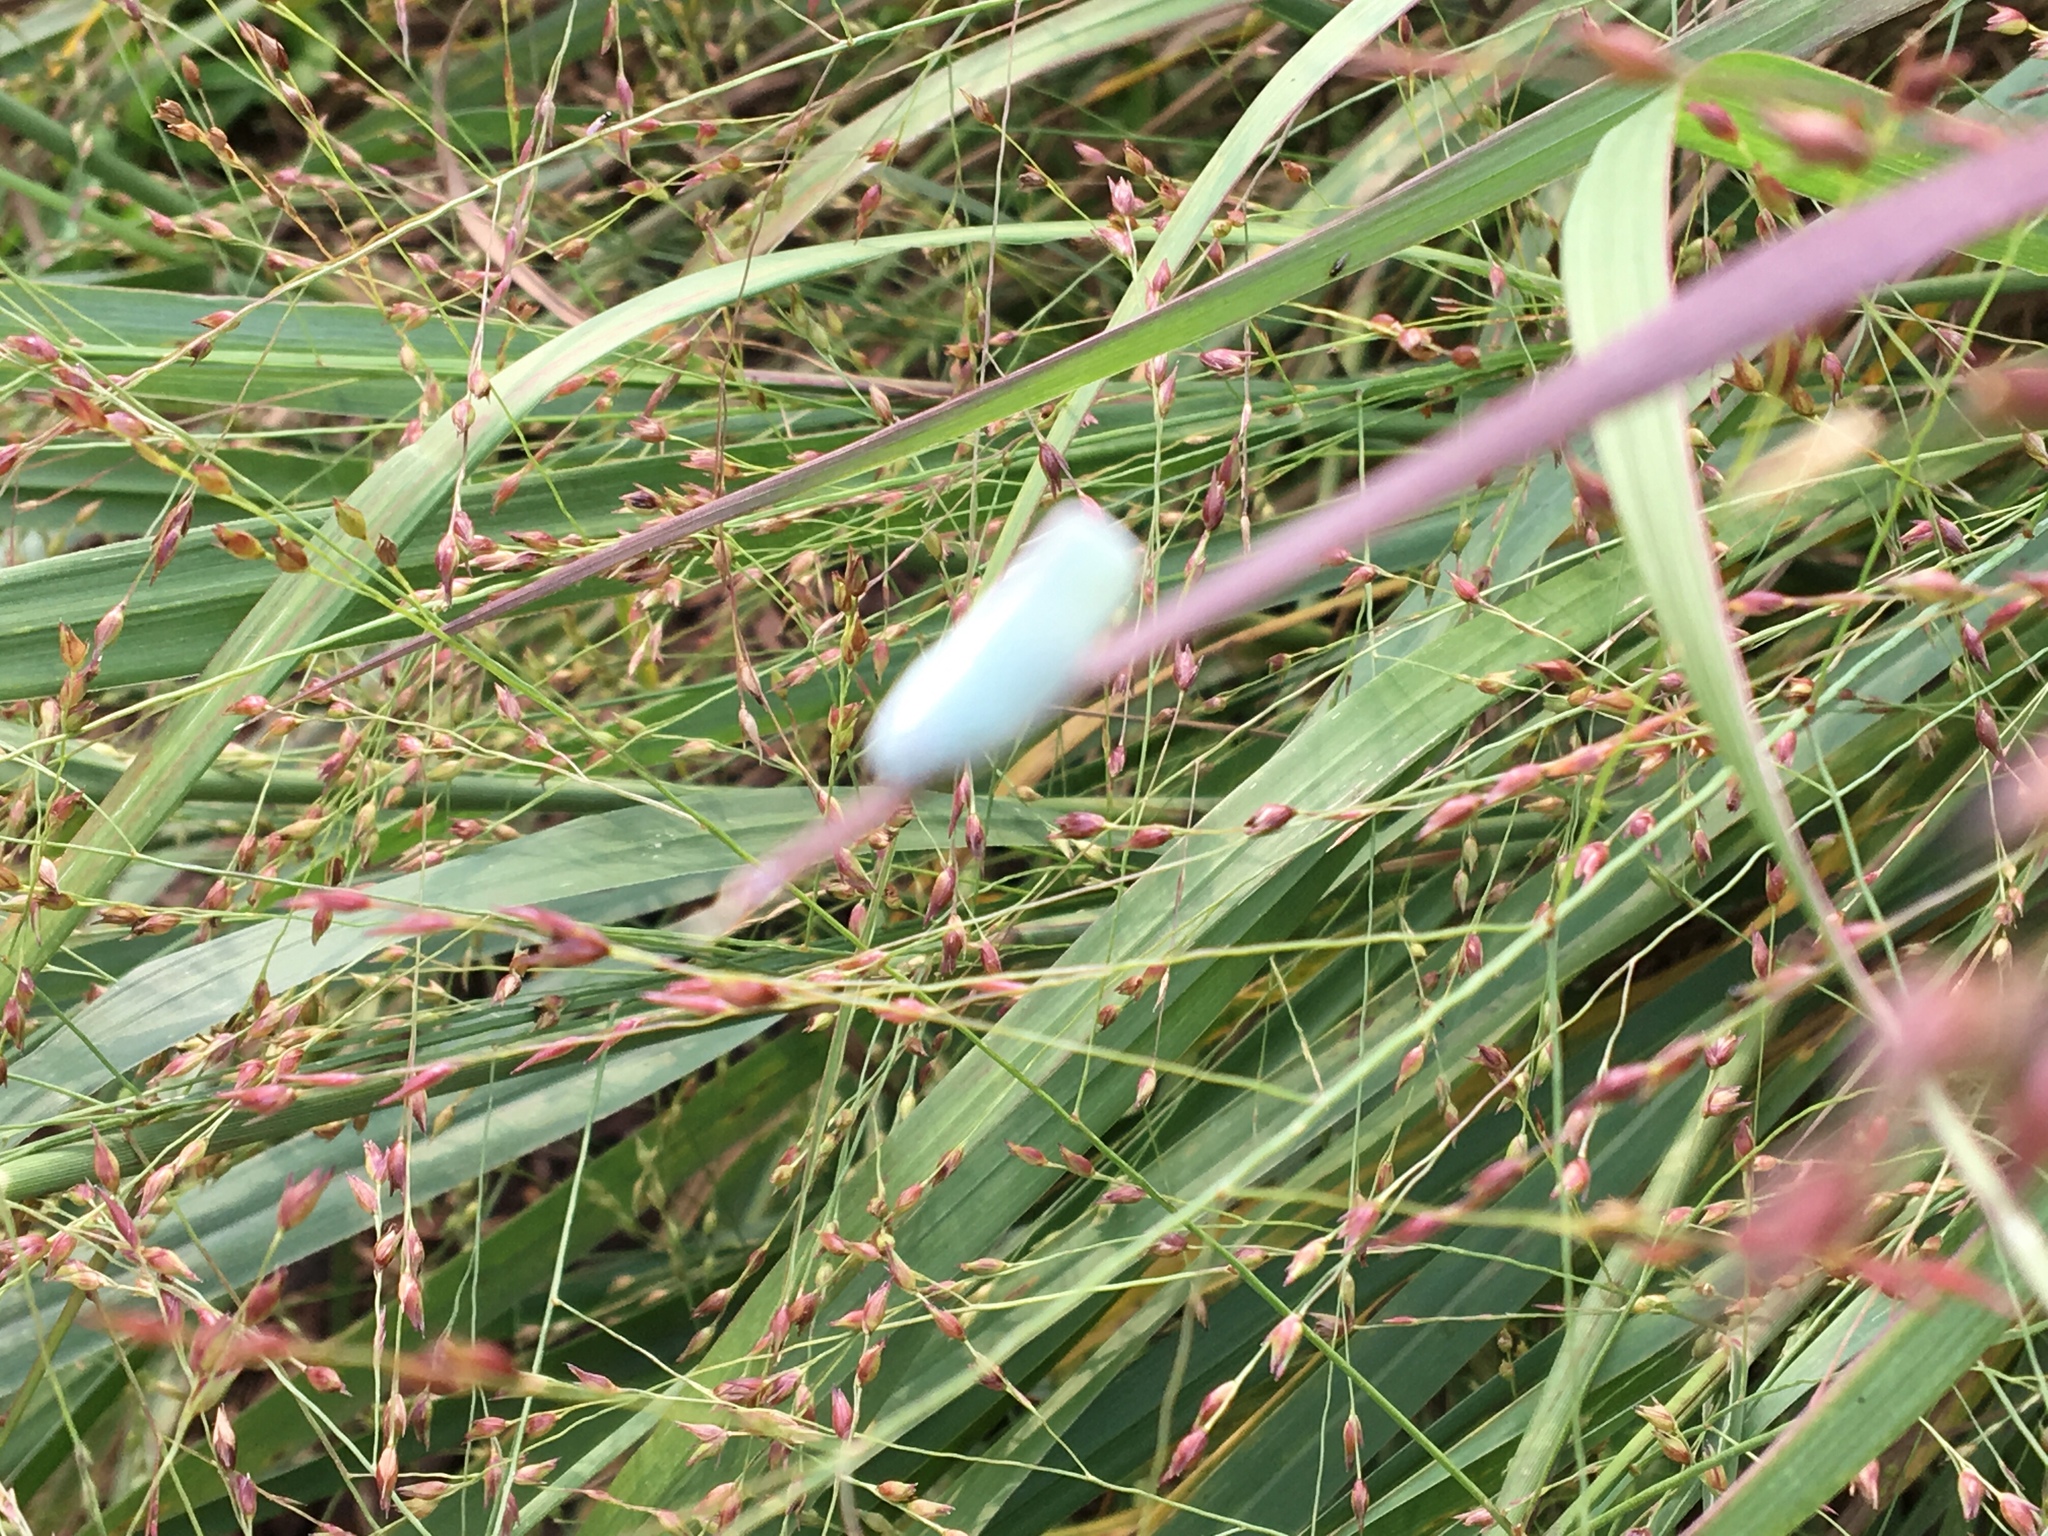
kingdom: Animalia
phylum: Arthropoda
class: Insecta
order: Hemiptera
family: Flatidae
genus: Flatormenis
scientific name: Flatormenis proxima
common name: Northern flatid planthopper
